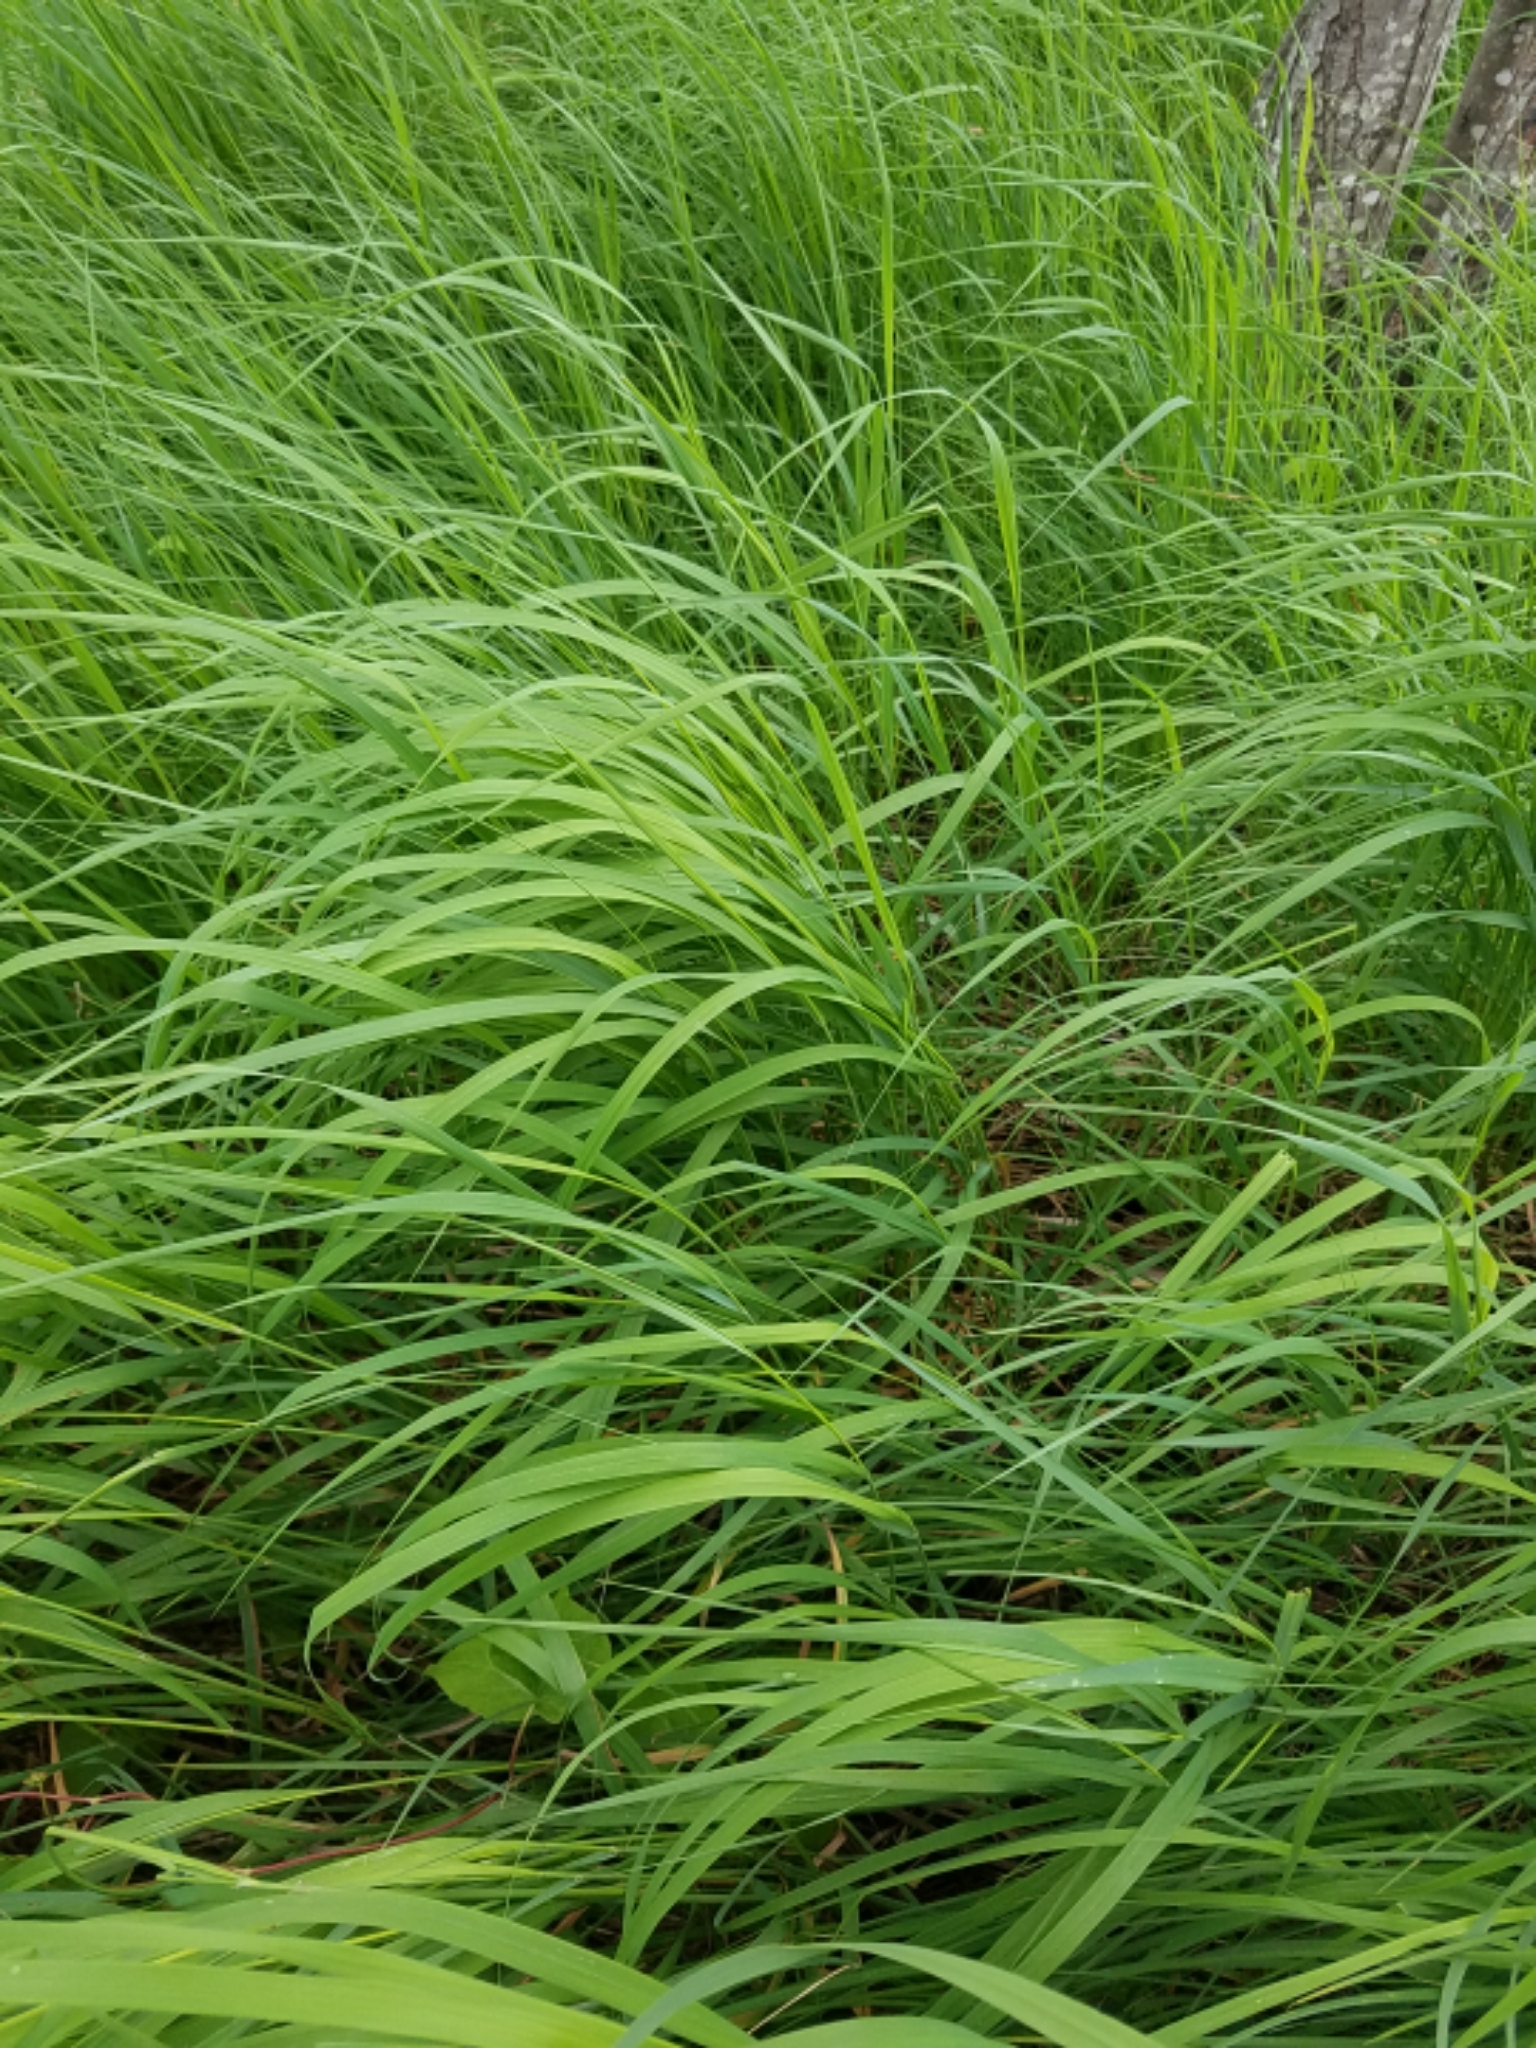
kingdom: Plantae
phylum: Tracheophyta
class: Liliopsida
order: Poales
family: Poaceae
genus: Calamagrostis
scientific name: Calamagrostis canadensis
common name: Canada bluejoint
